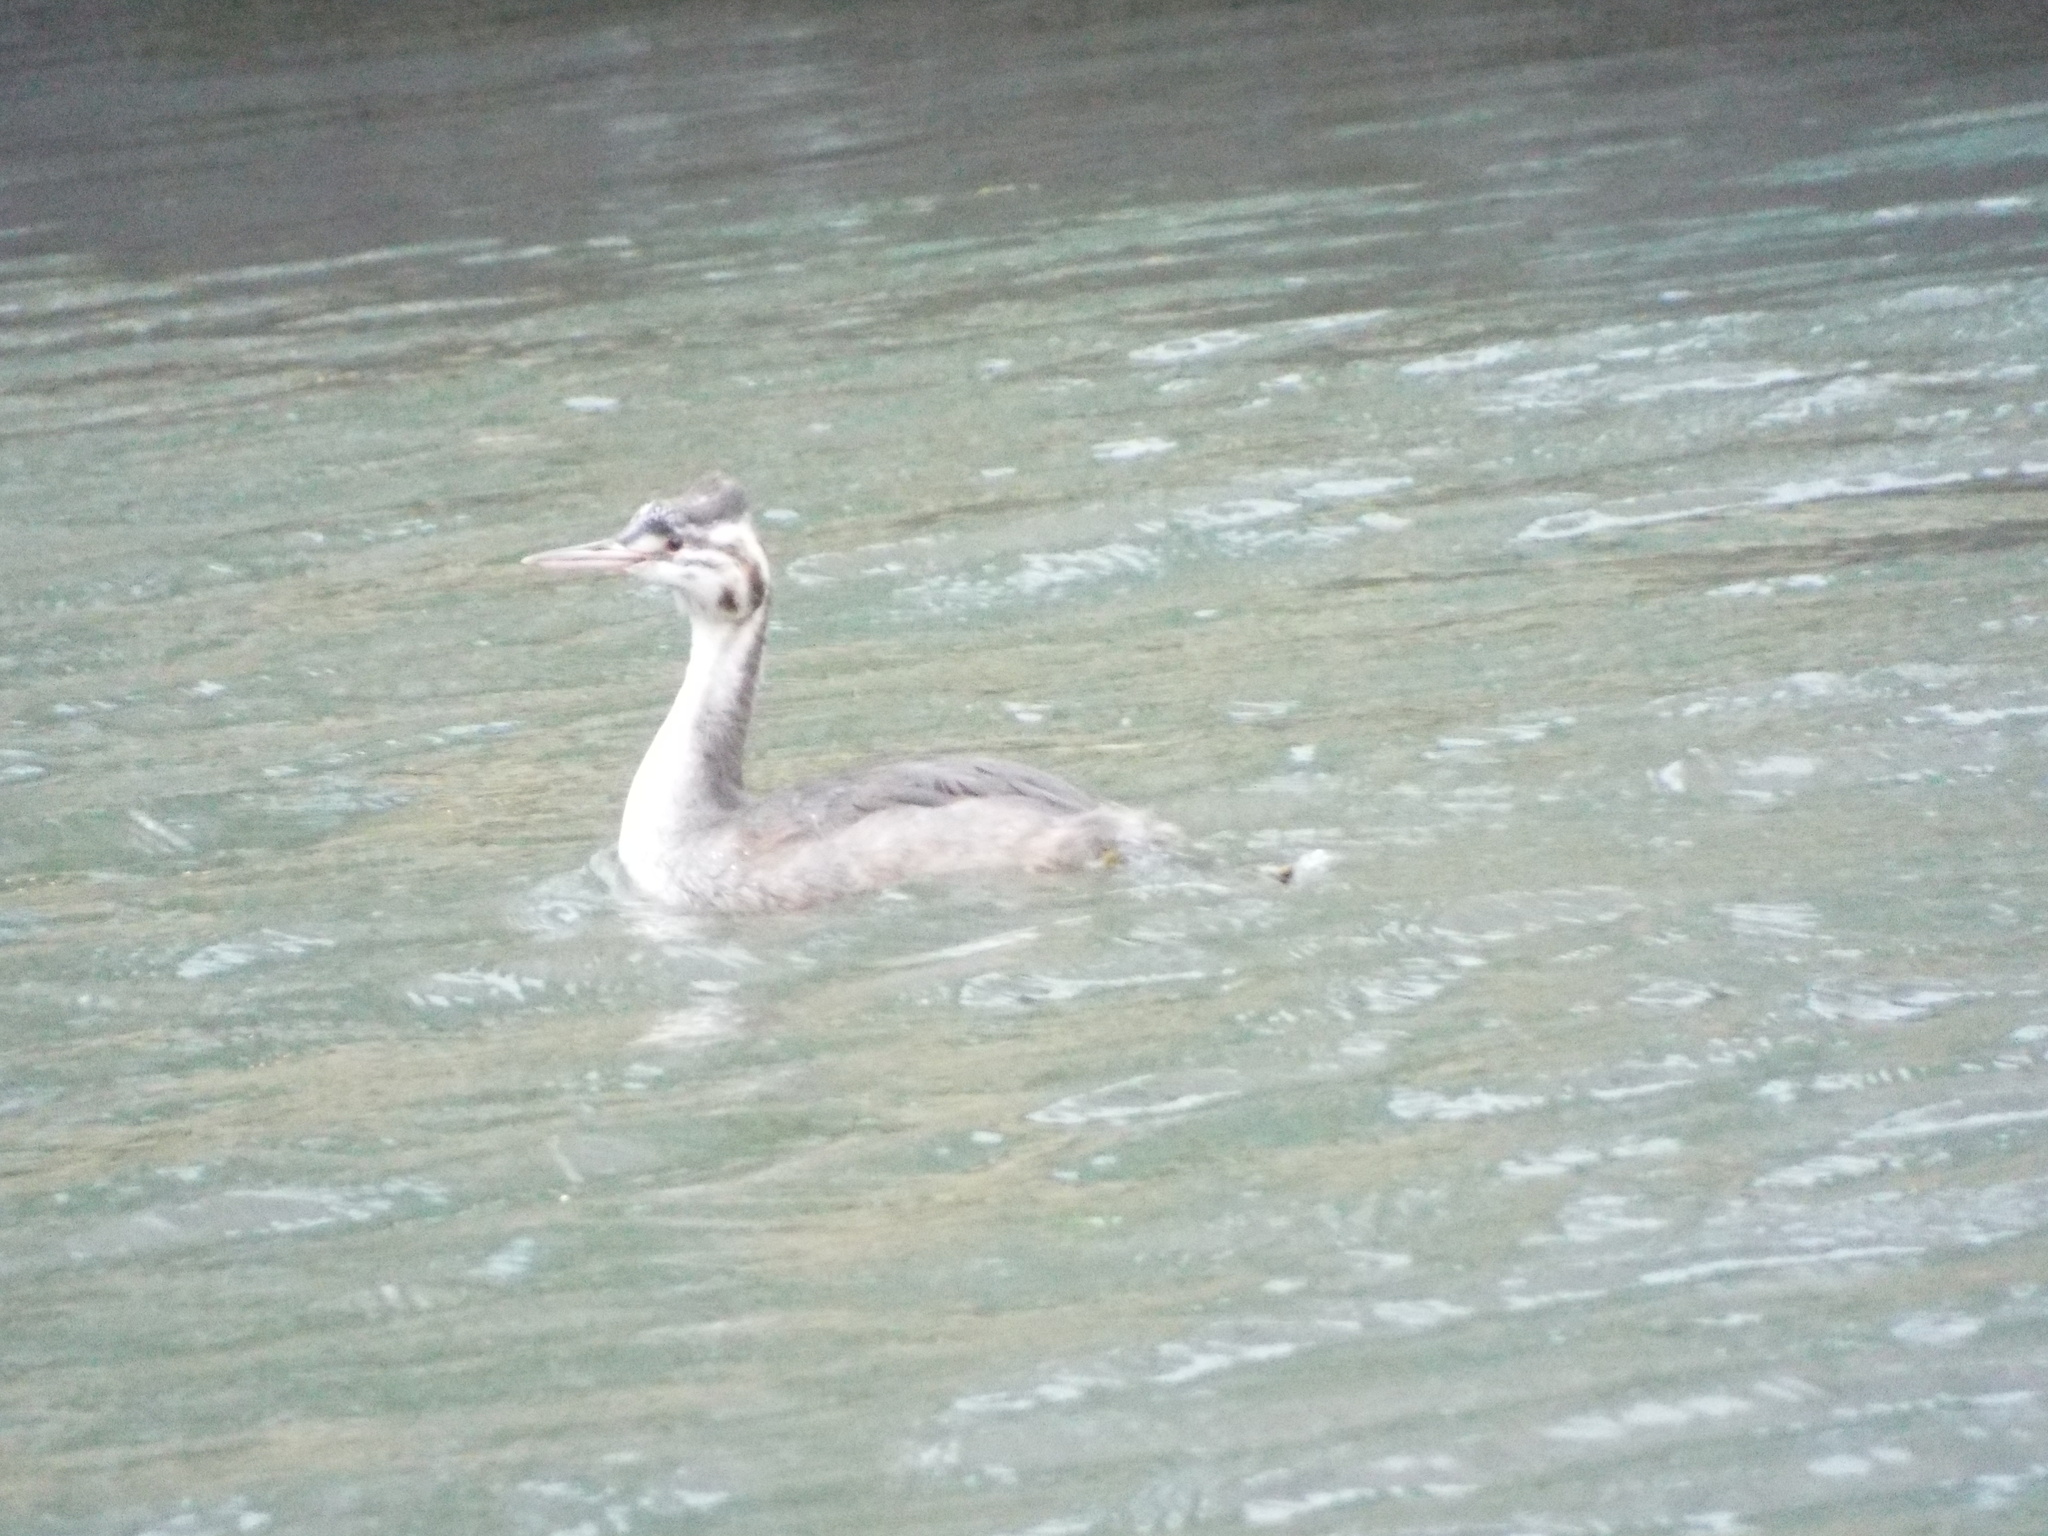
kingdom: Animalia
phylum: Chordata
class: Aves
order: Podicipediformes
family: Podicipedidae
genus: Podiceps
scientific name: Podiceps cristatus
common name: Great crested grebe
